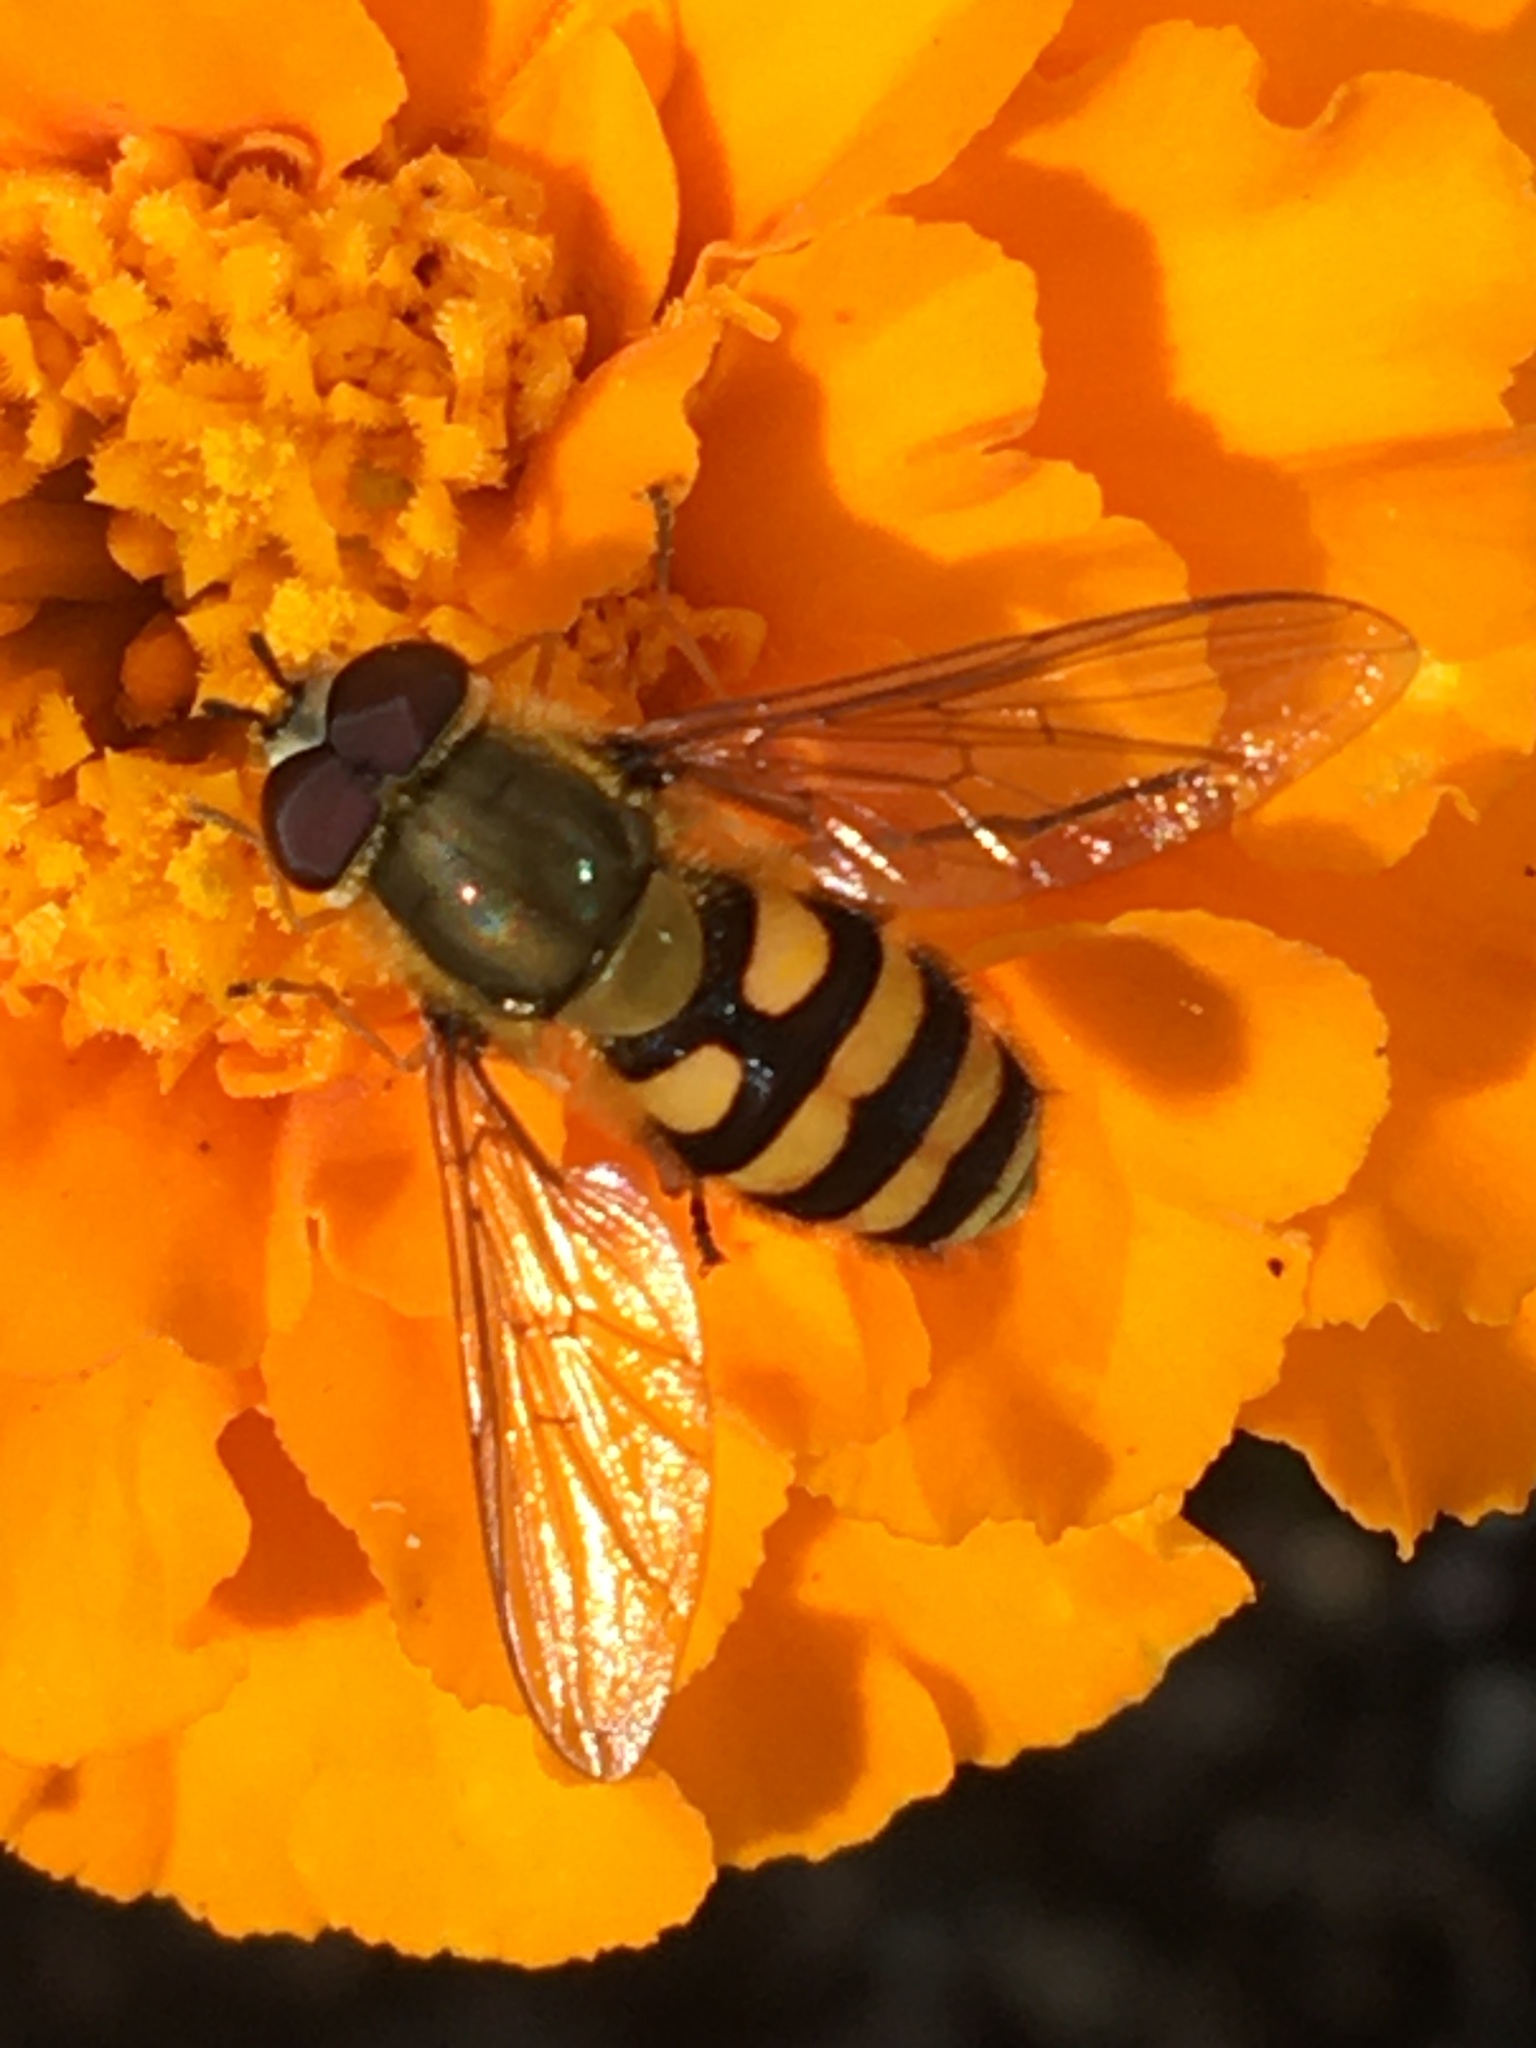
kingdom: Animalia
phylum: Arthropoda
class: Insecta
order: Diptera
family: Syrphidae
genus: Syrphus
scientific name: Syrphus
